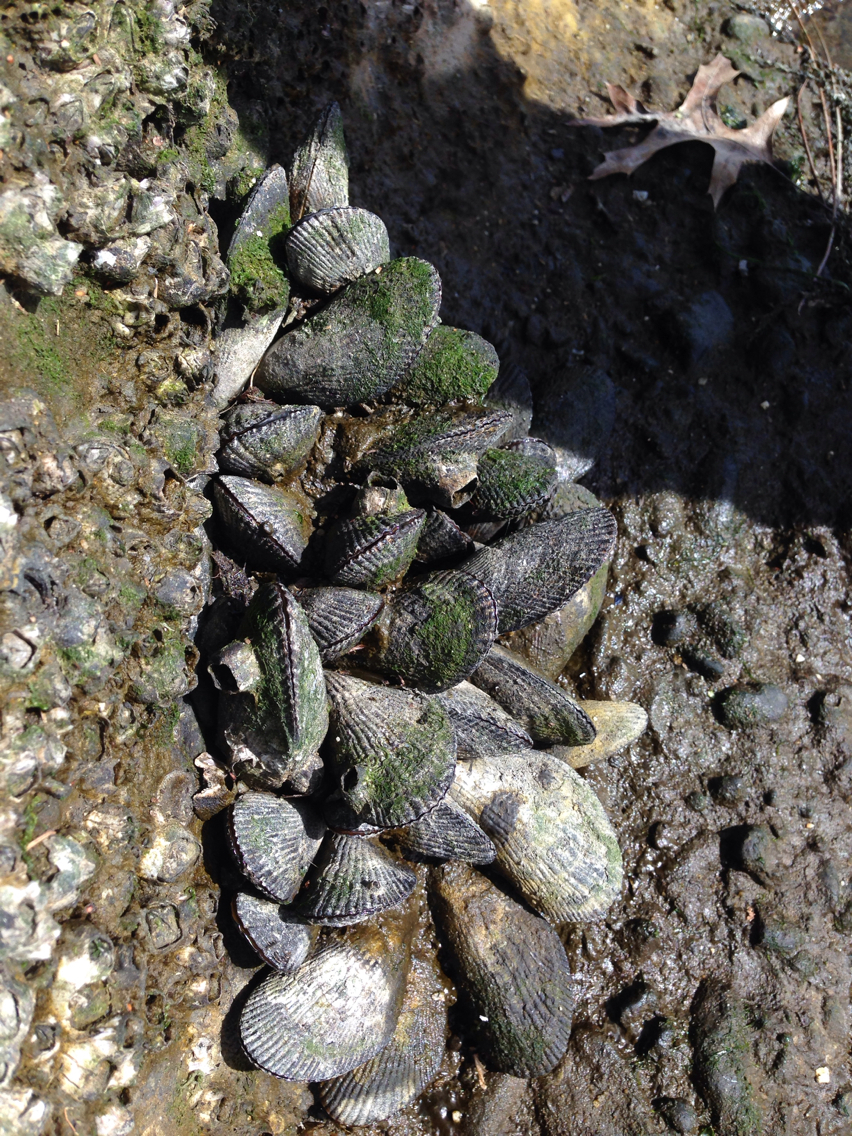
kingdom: Animalia
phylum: Mollusca
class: Bivalvia
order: Mytilida
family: Mytilidae
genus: Geukensia
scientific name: Geukensia demissa
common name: Ribbed mussel
